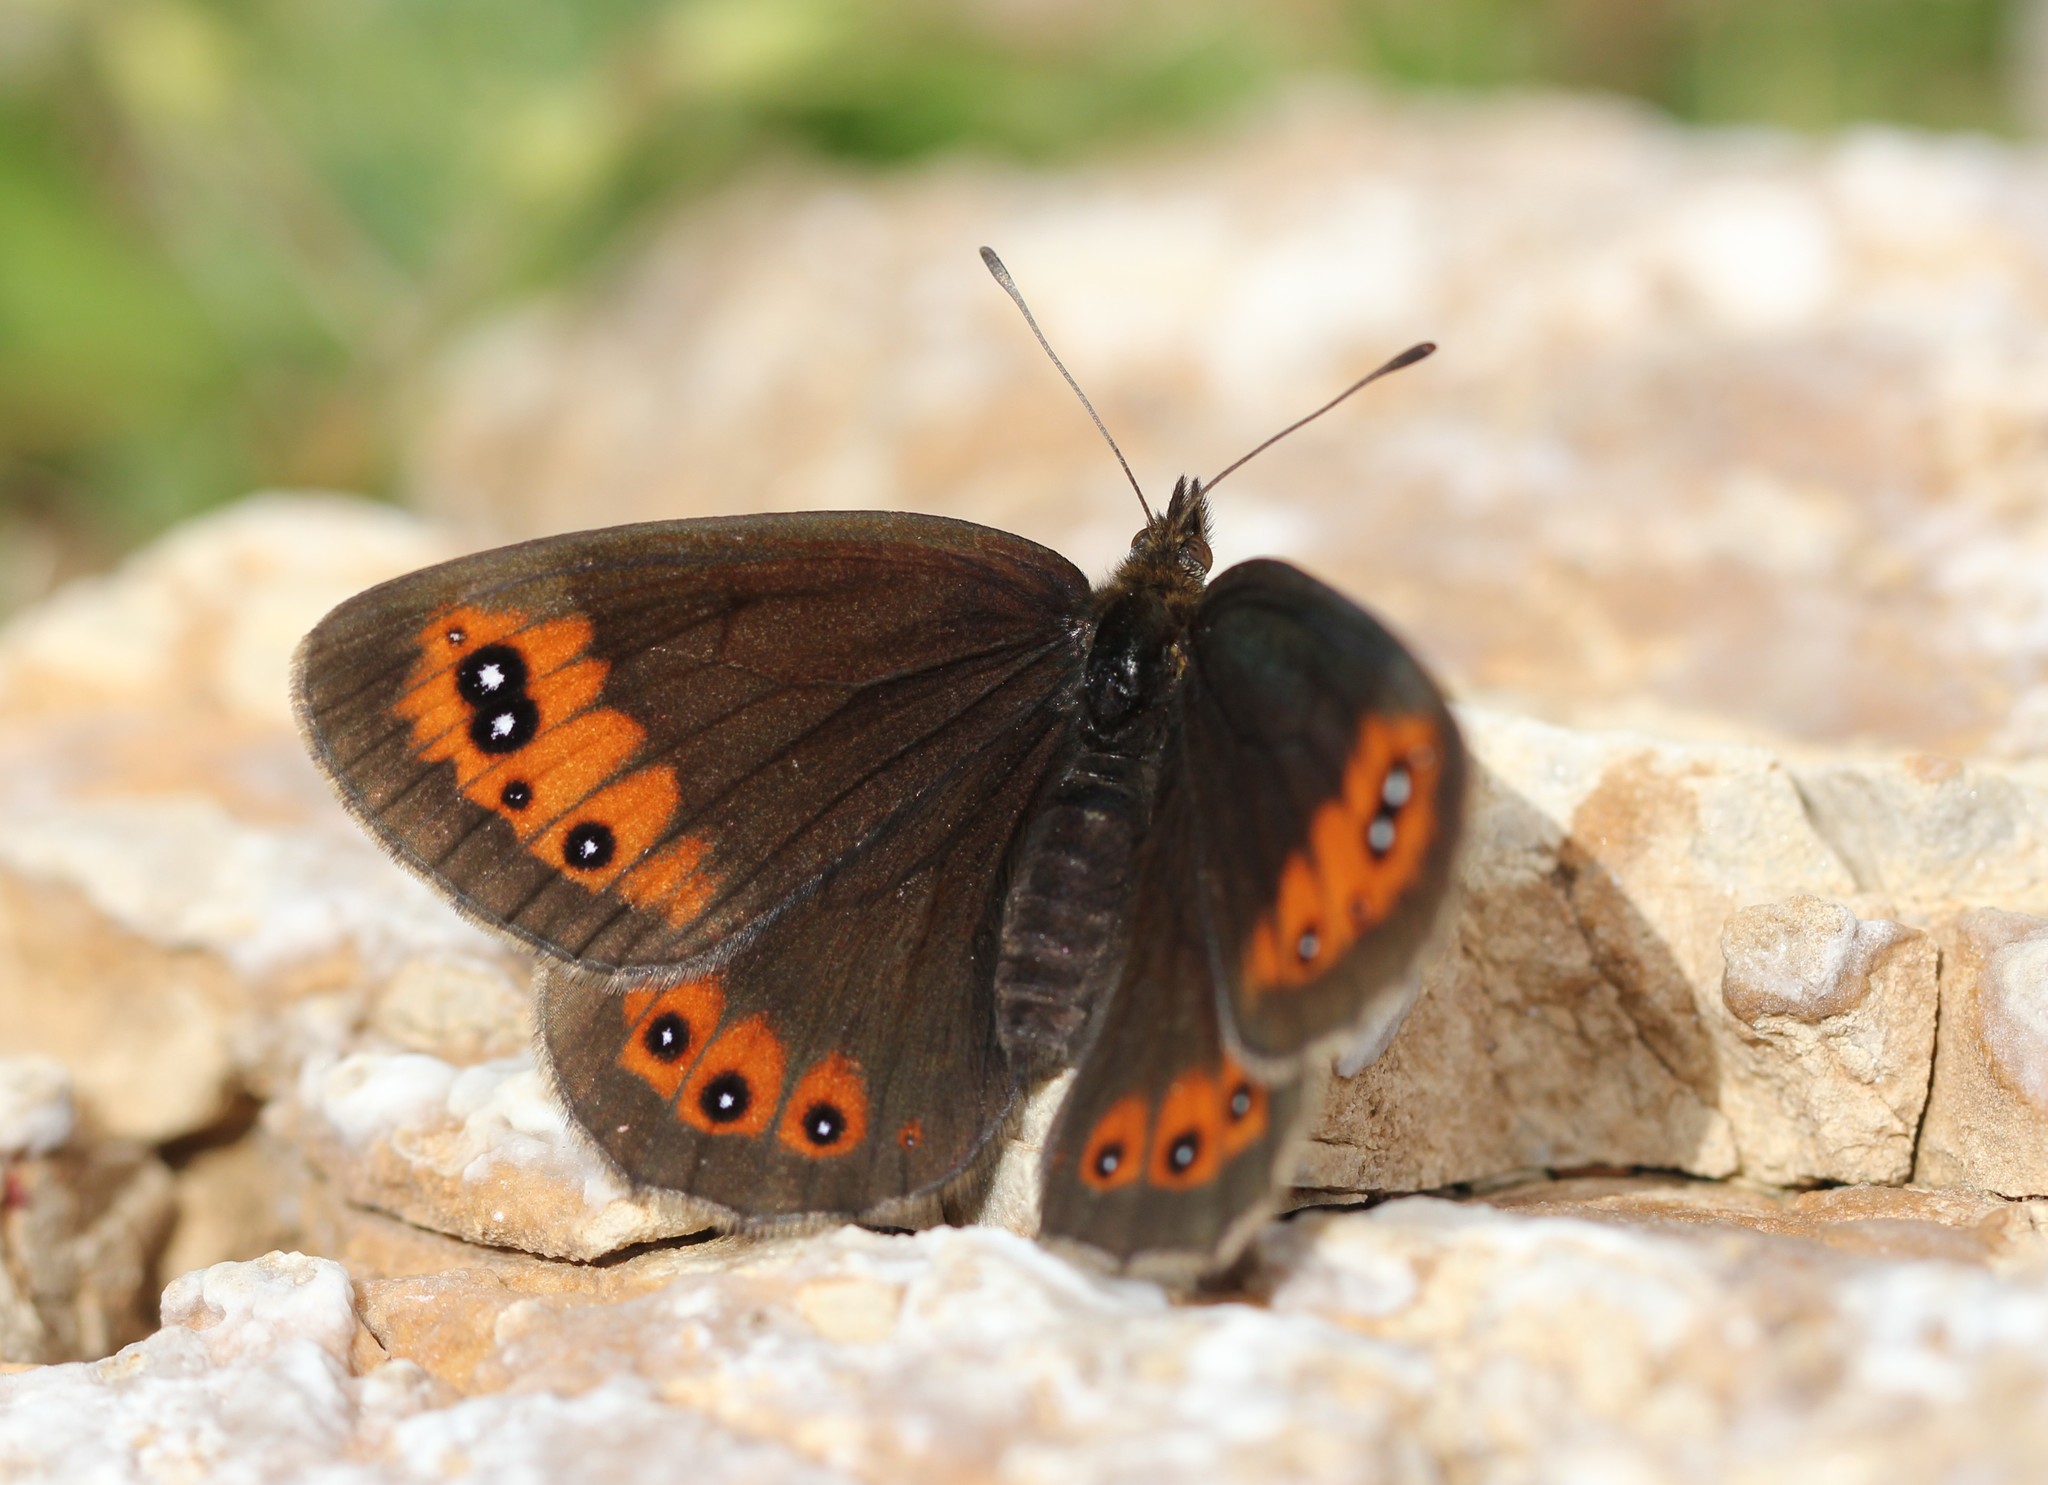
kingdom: Animalia
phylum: Arthropoda
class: Insecta
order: Lepidoptera
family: Nymphalidae
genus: Erebia
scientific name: Erebia meolans
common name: Piedmont ringlet
